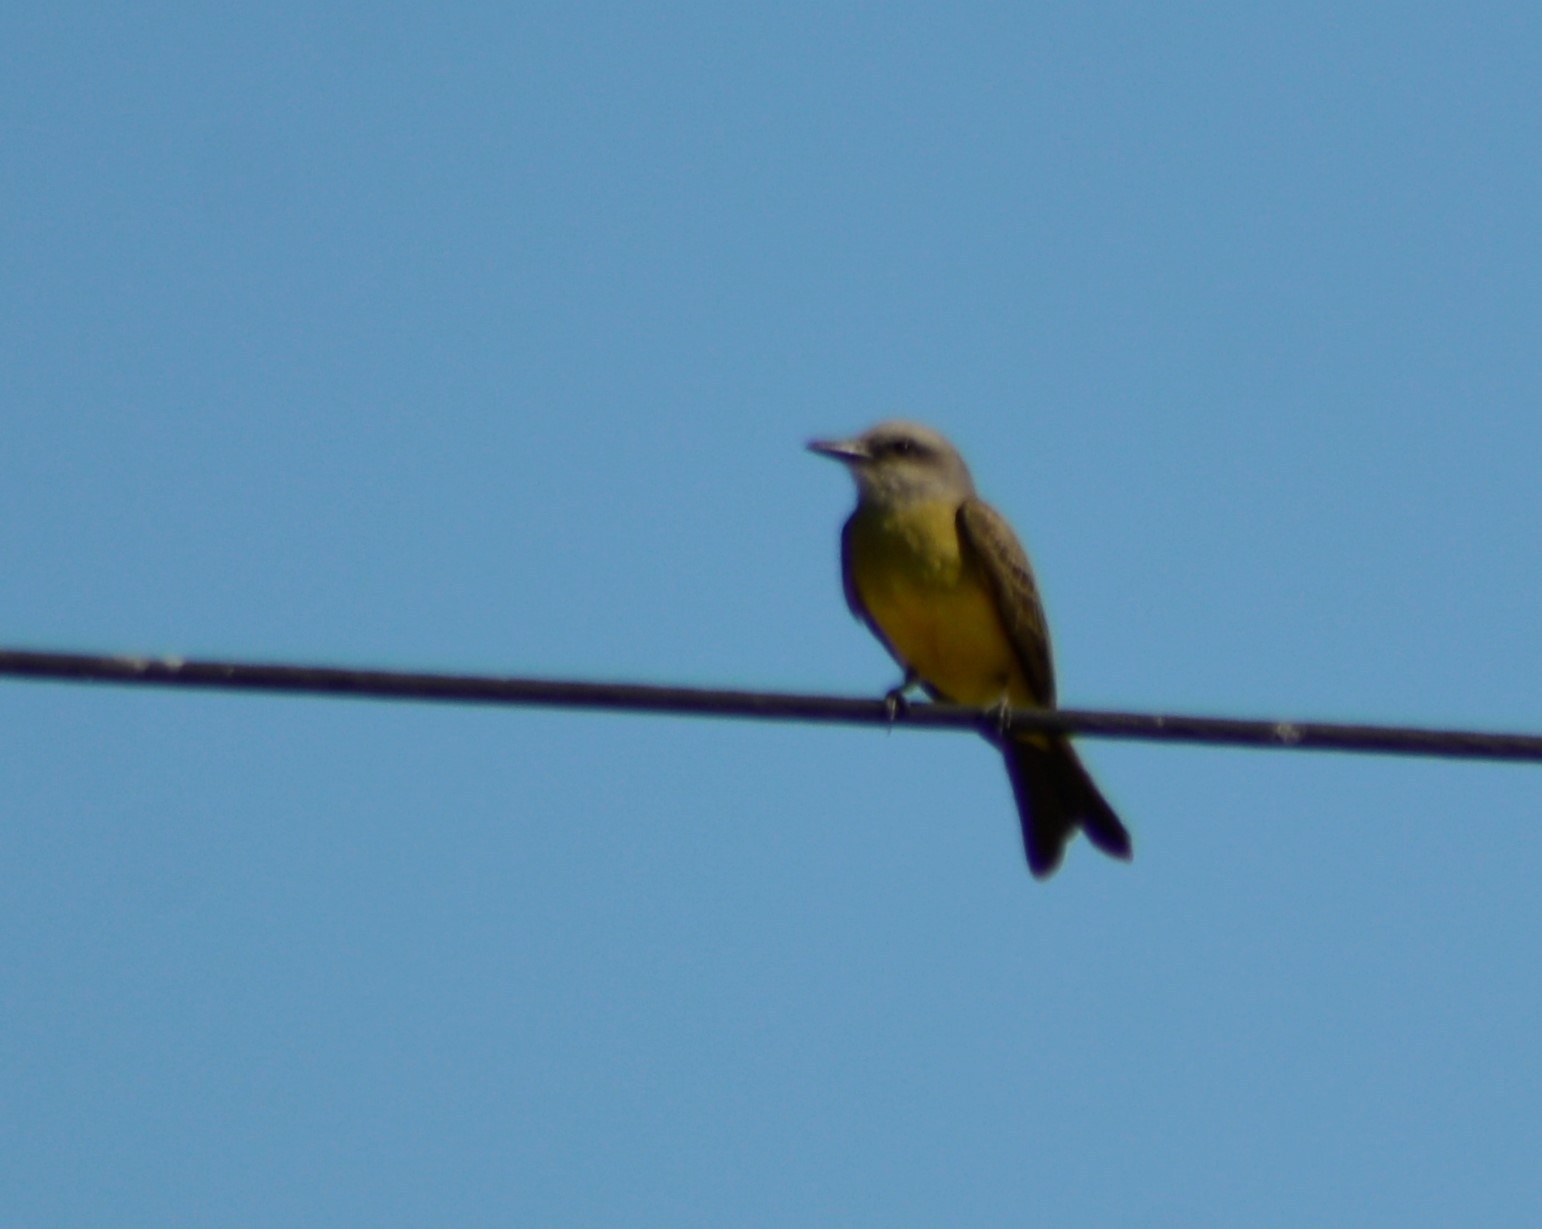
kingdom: Animalia
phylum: Chordata
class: Aves
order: Passeriformes
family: Tyrannidae
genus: Tyrannus
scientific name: Tyrannus melancholicus
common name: Tropical kingbird
